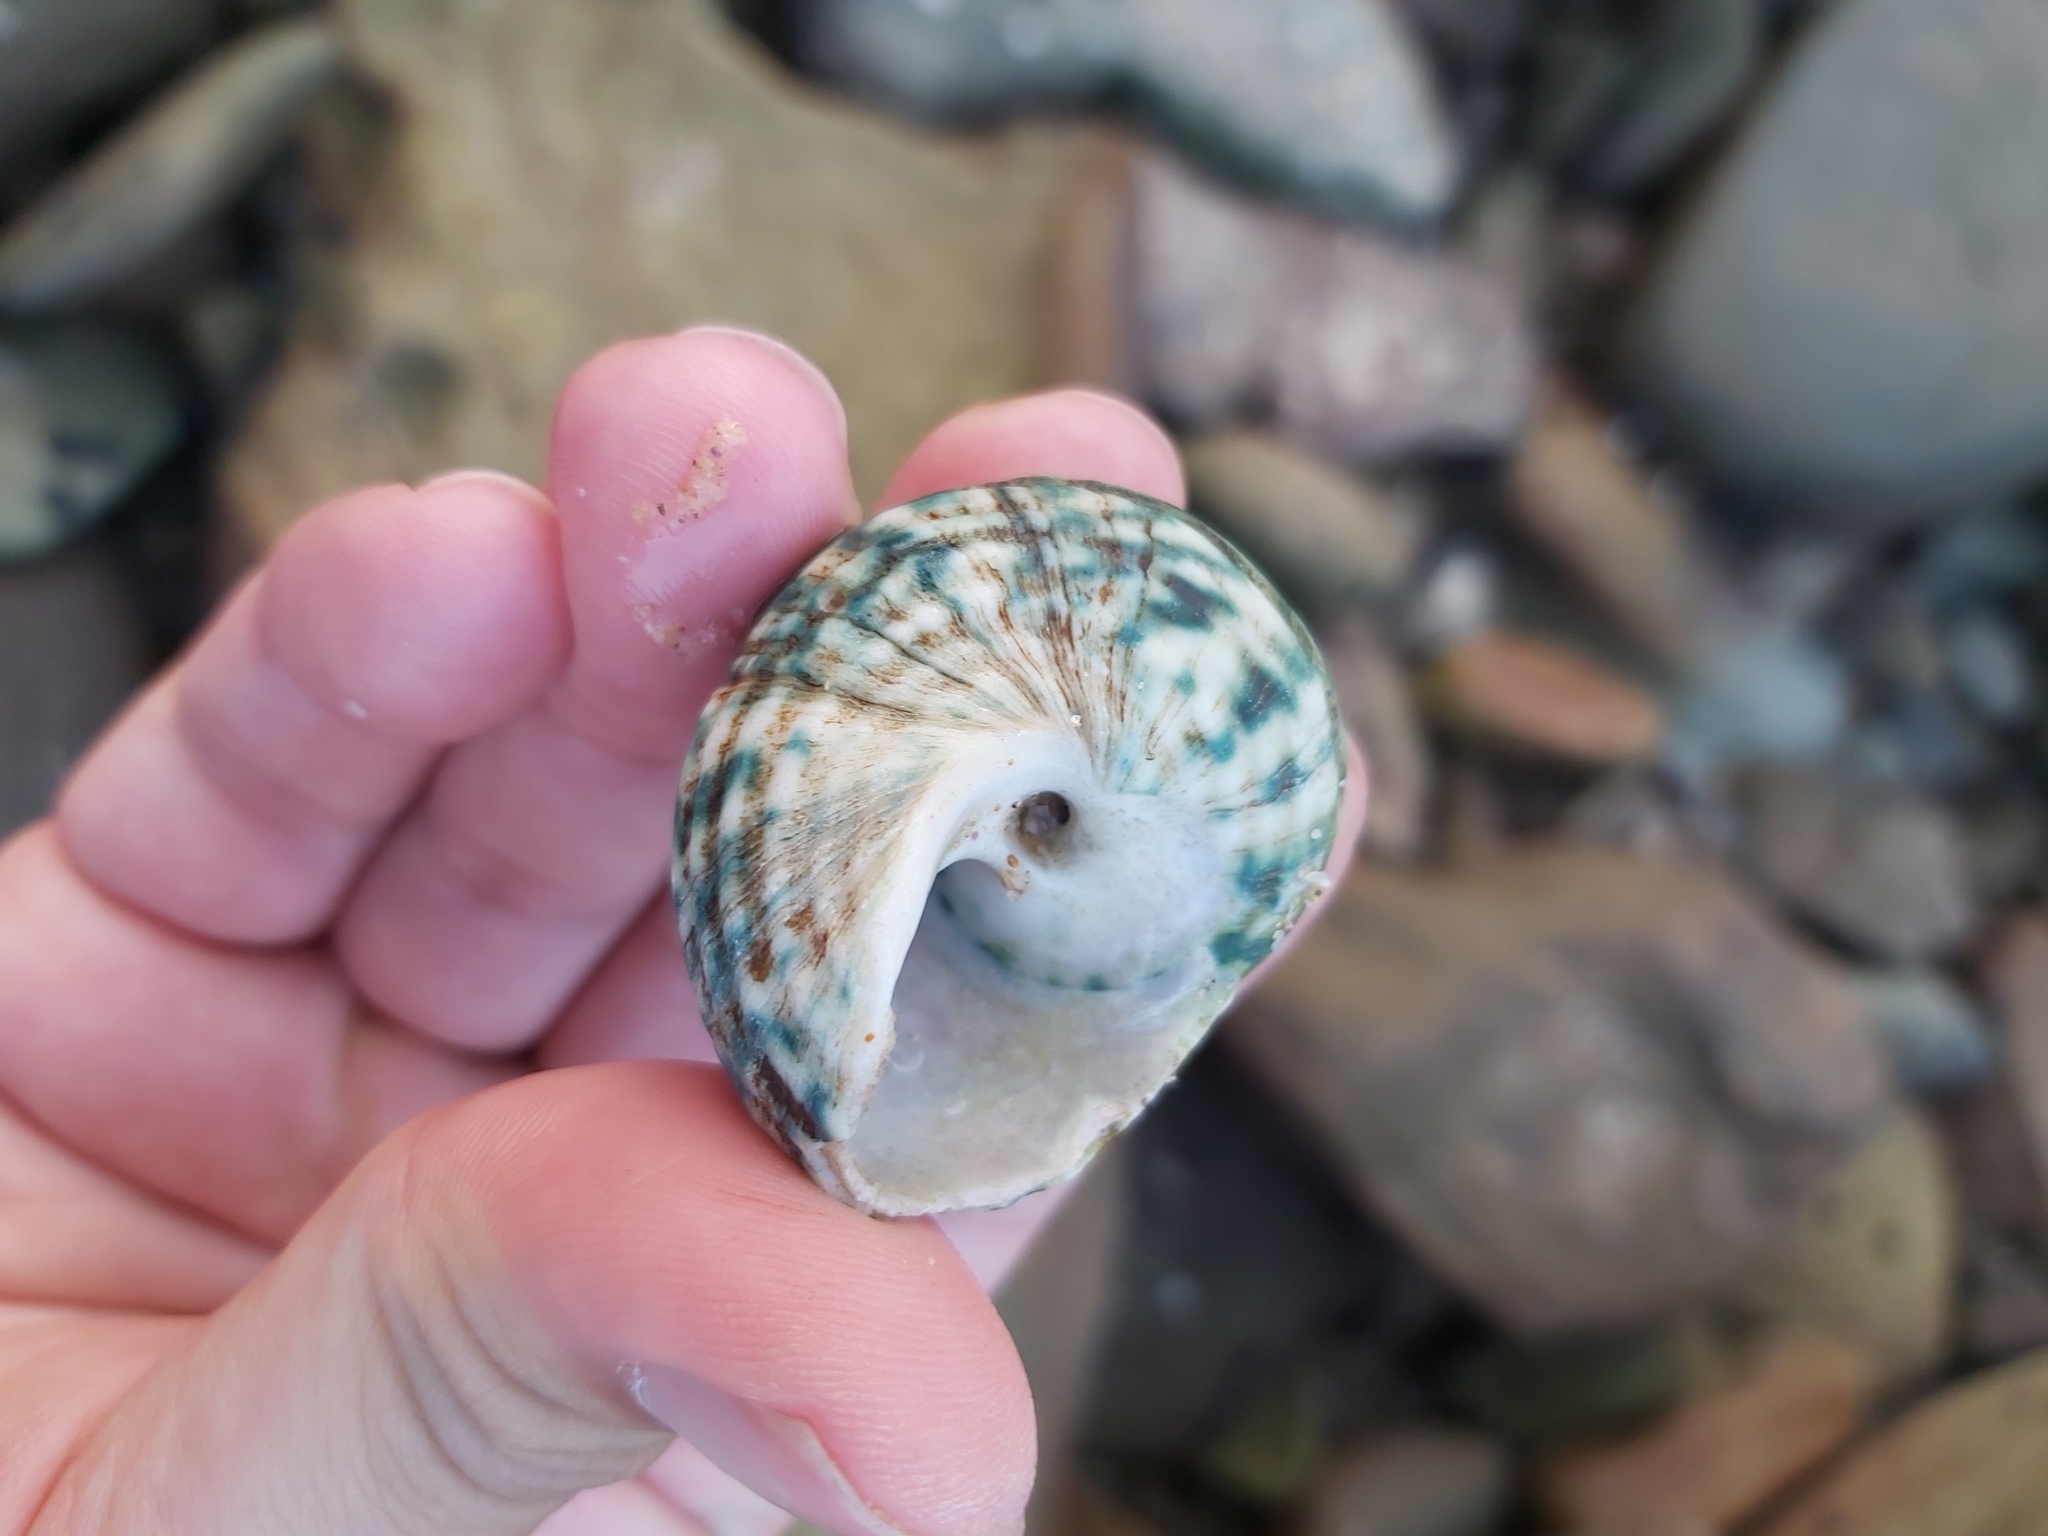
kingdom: Animalia
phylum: Mollusca
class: Gastropoda
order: Trochida
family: Turbinidae
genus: Lunella
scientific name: Lunella undulata
